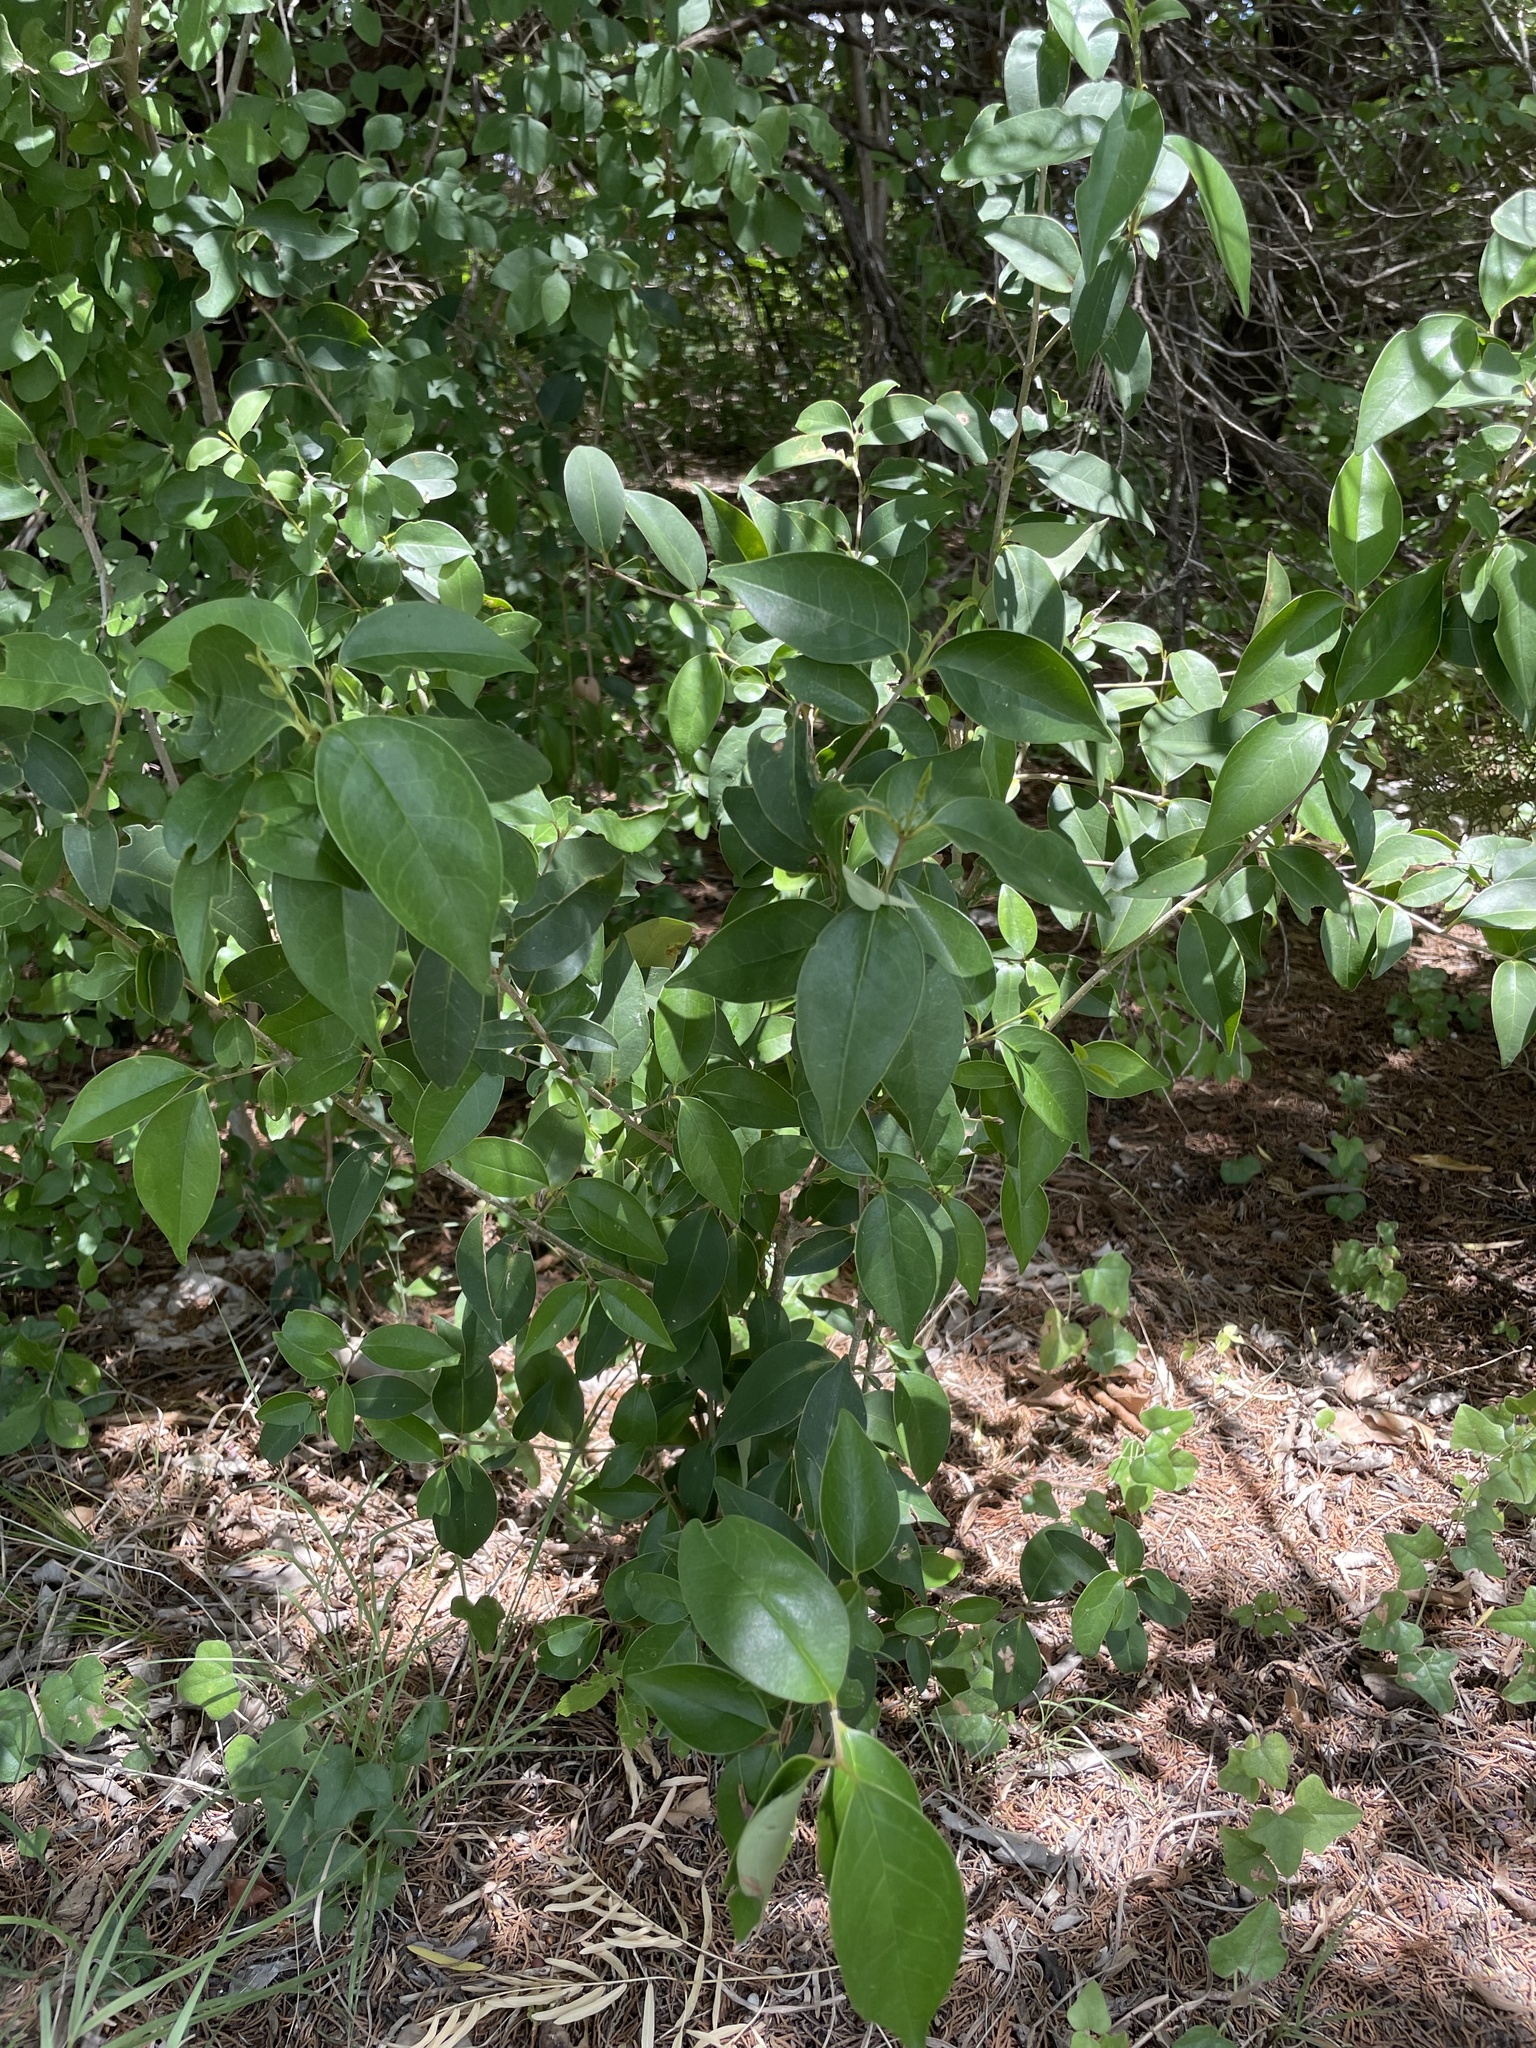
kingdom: Plantae
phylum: Tracheophyta
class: Magnoliopsida
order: Lamiales
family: Oleaceae
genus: Ligustrum
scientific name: Ligustrum lucidum
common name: Glossy privet
